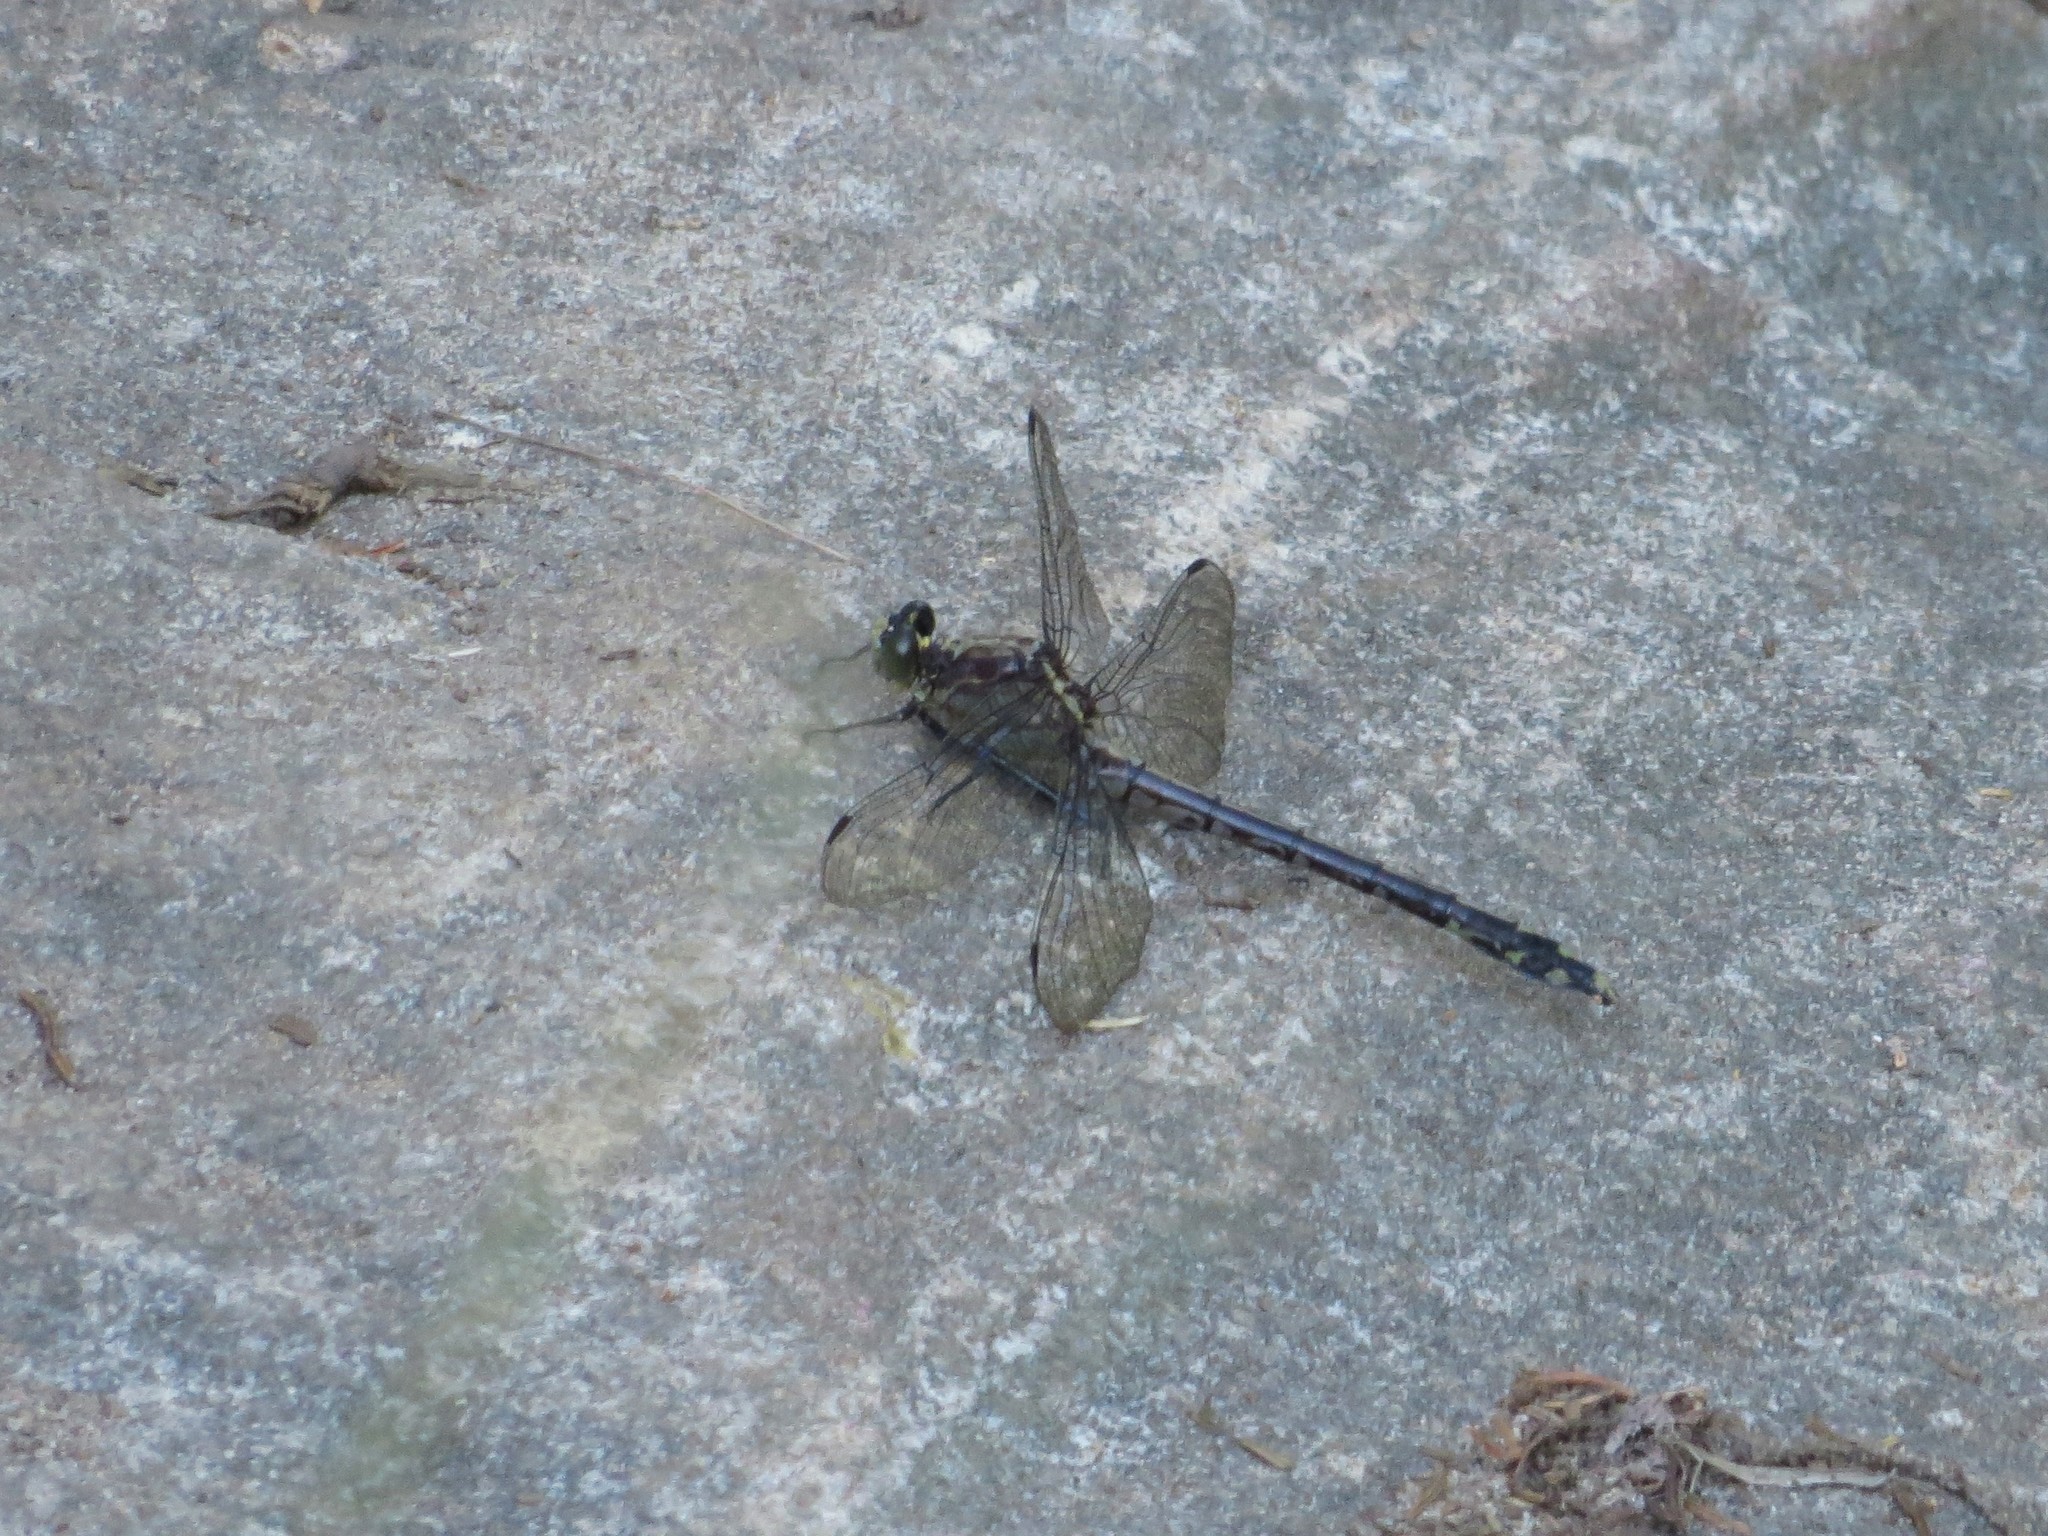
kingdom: Animalia
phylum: Arthropoda
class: Insecta
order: Odonata
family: Gomphidae
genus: Dromogomphus
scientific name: Dromogomphus spinosus
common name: Black-shouldered spinyleg
